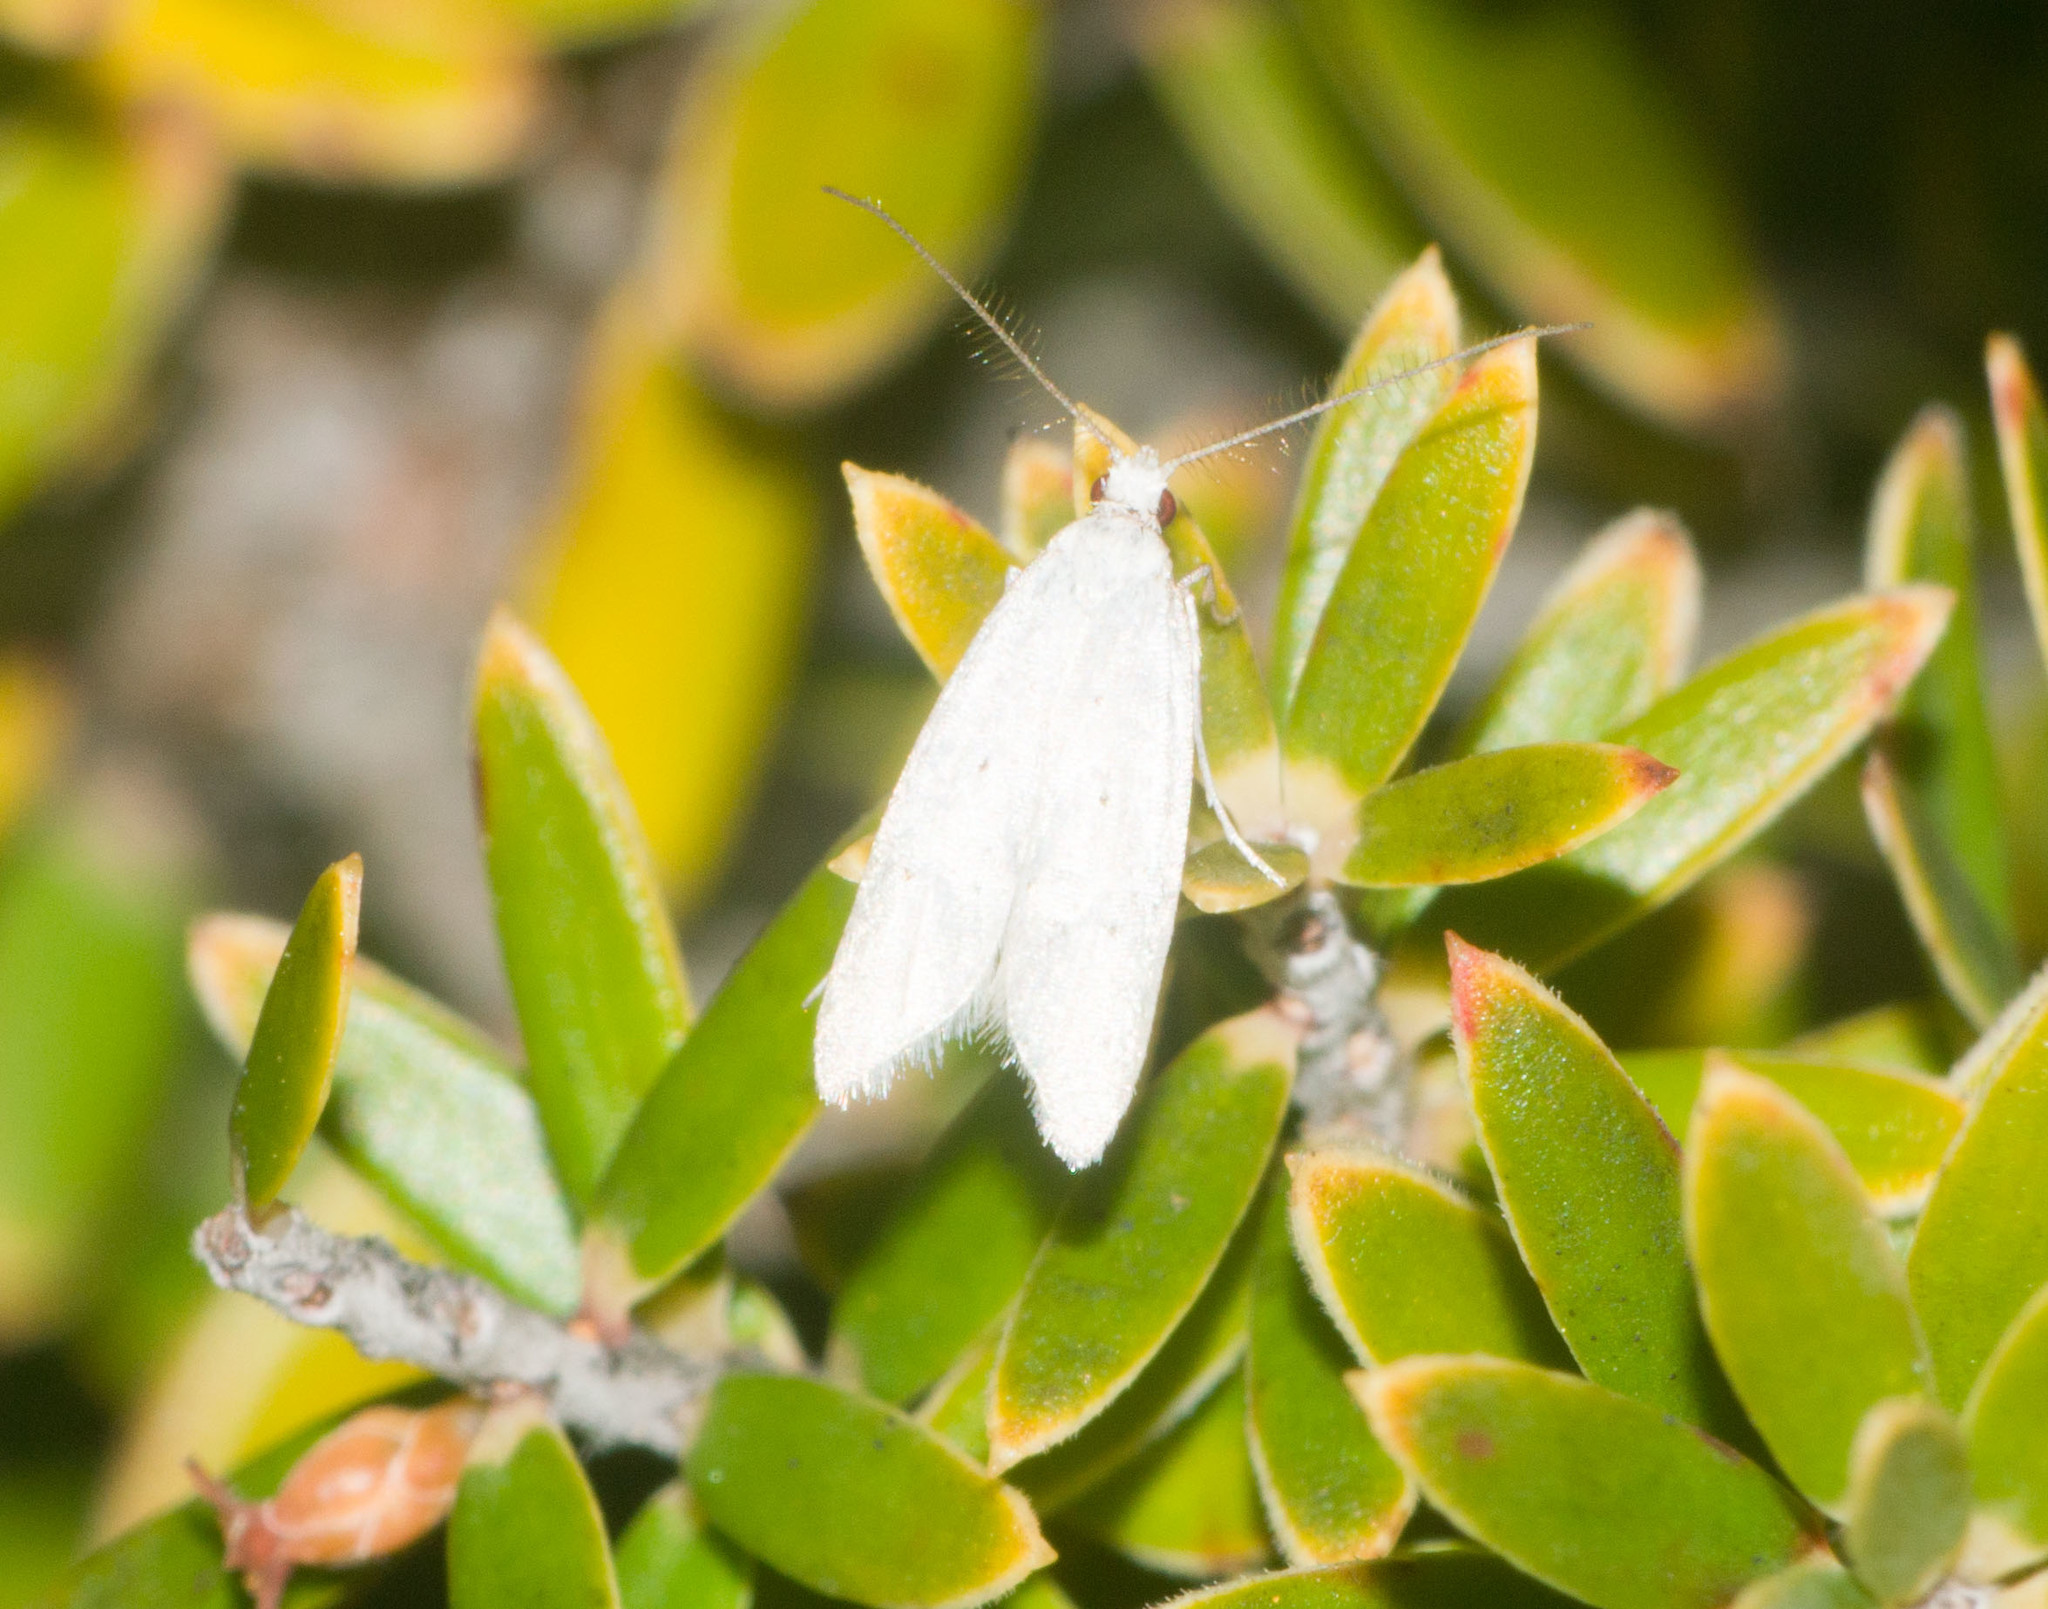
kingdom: Animalia
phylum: Arthropoda
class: Insecta
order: Lepidoptera
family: Carposinidae
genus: Carposina
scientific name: Carposina gracillima
